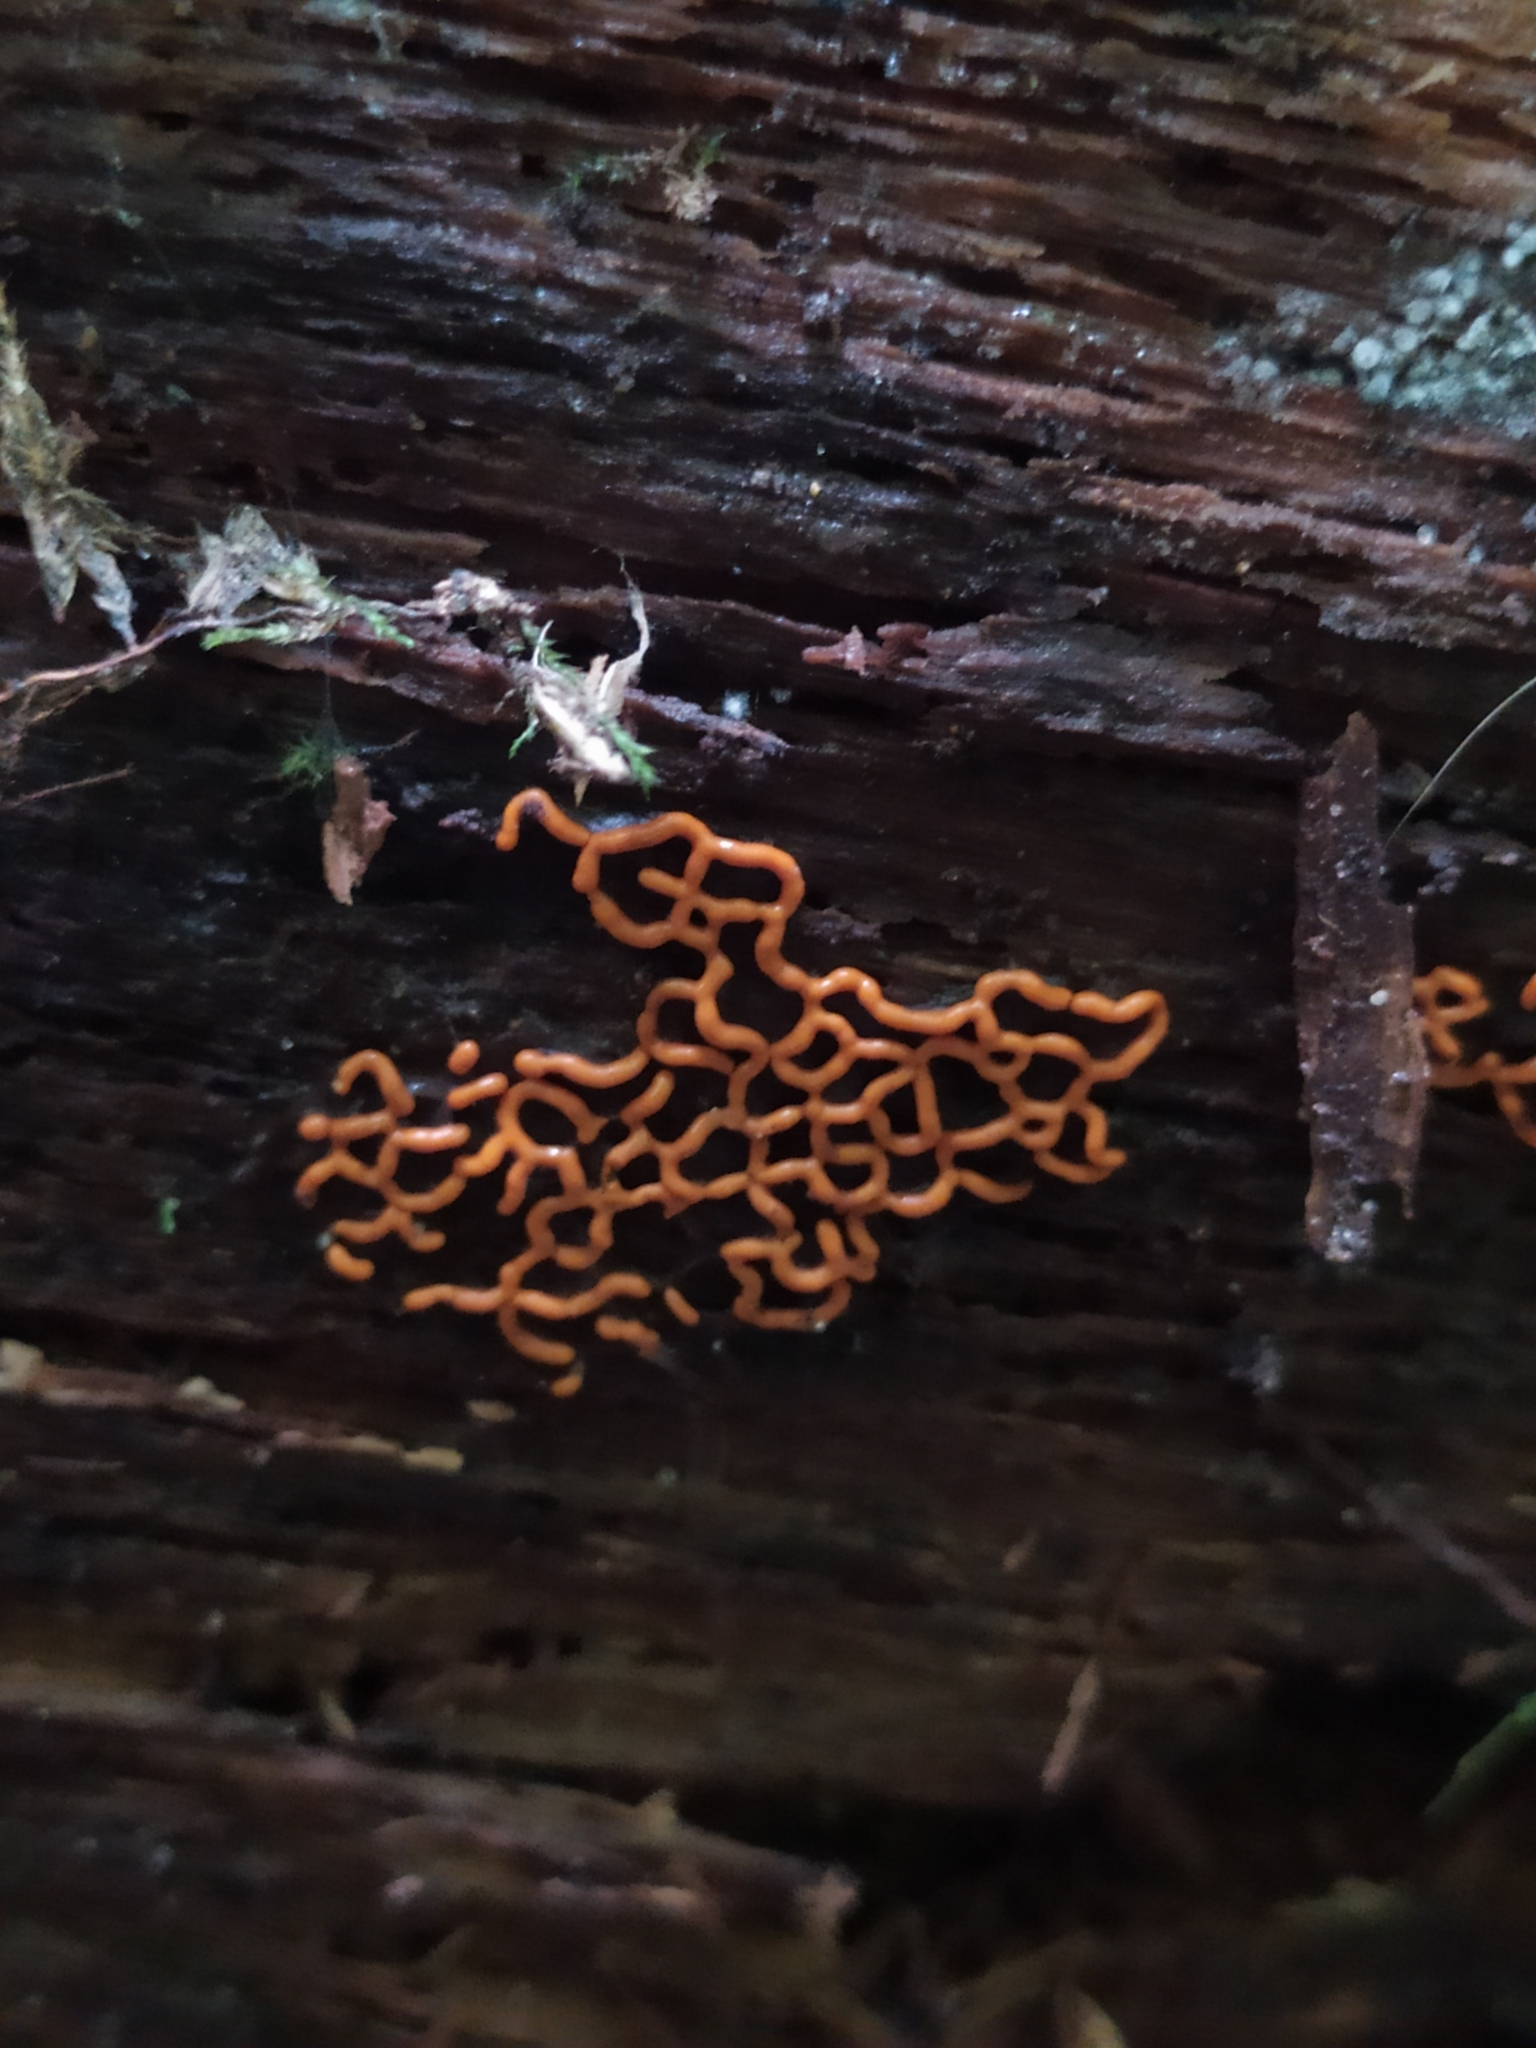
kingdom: Protozoa
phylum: Mycetozoa
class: Myxomycetes
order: Trichiales
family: Arcyriaceae
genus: Hemitrichia
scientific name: Hemitrichia serpula
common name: Pretzel slime mold
